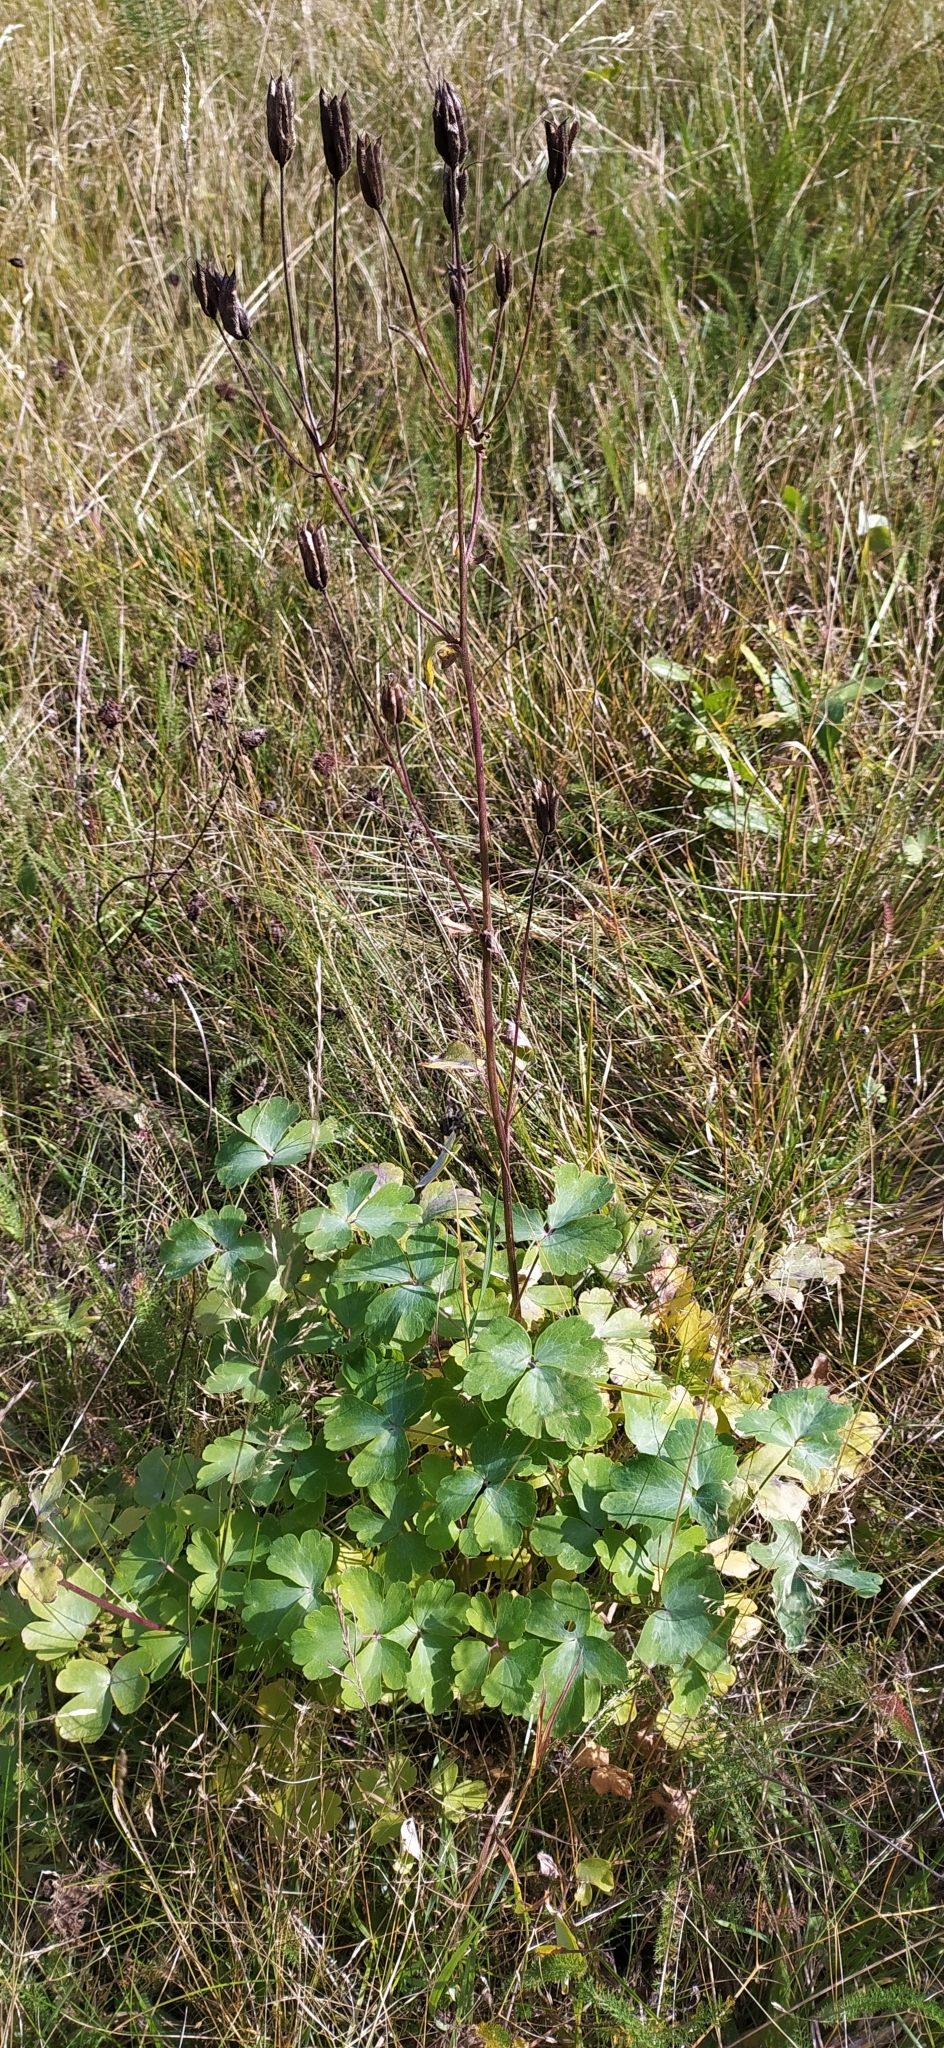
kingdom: Plantae
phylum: Tracheophyta
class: Magnoliopsida
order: Ranunculales
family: Ranunculaceae
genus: Aquilegia
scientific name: Aquilegia vulgaris
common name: Columbine
